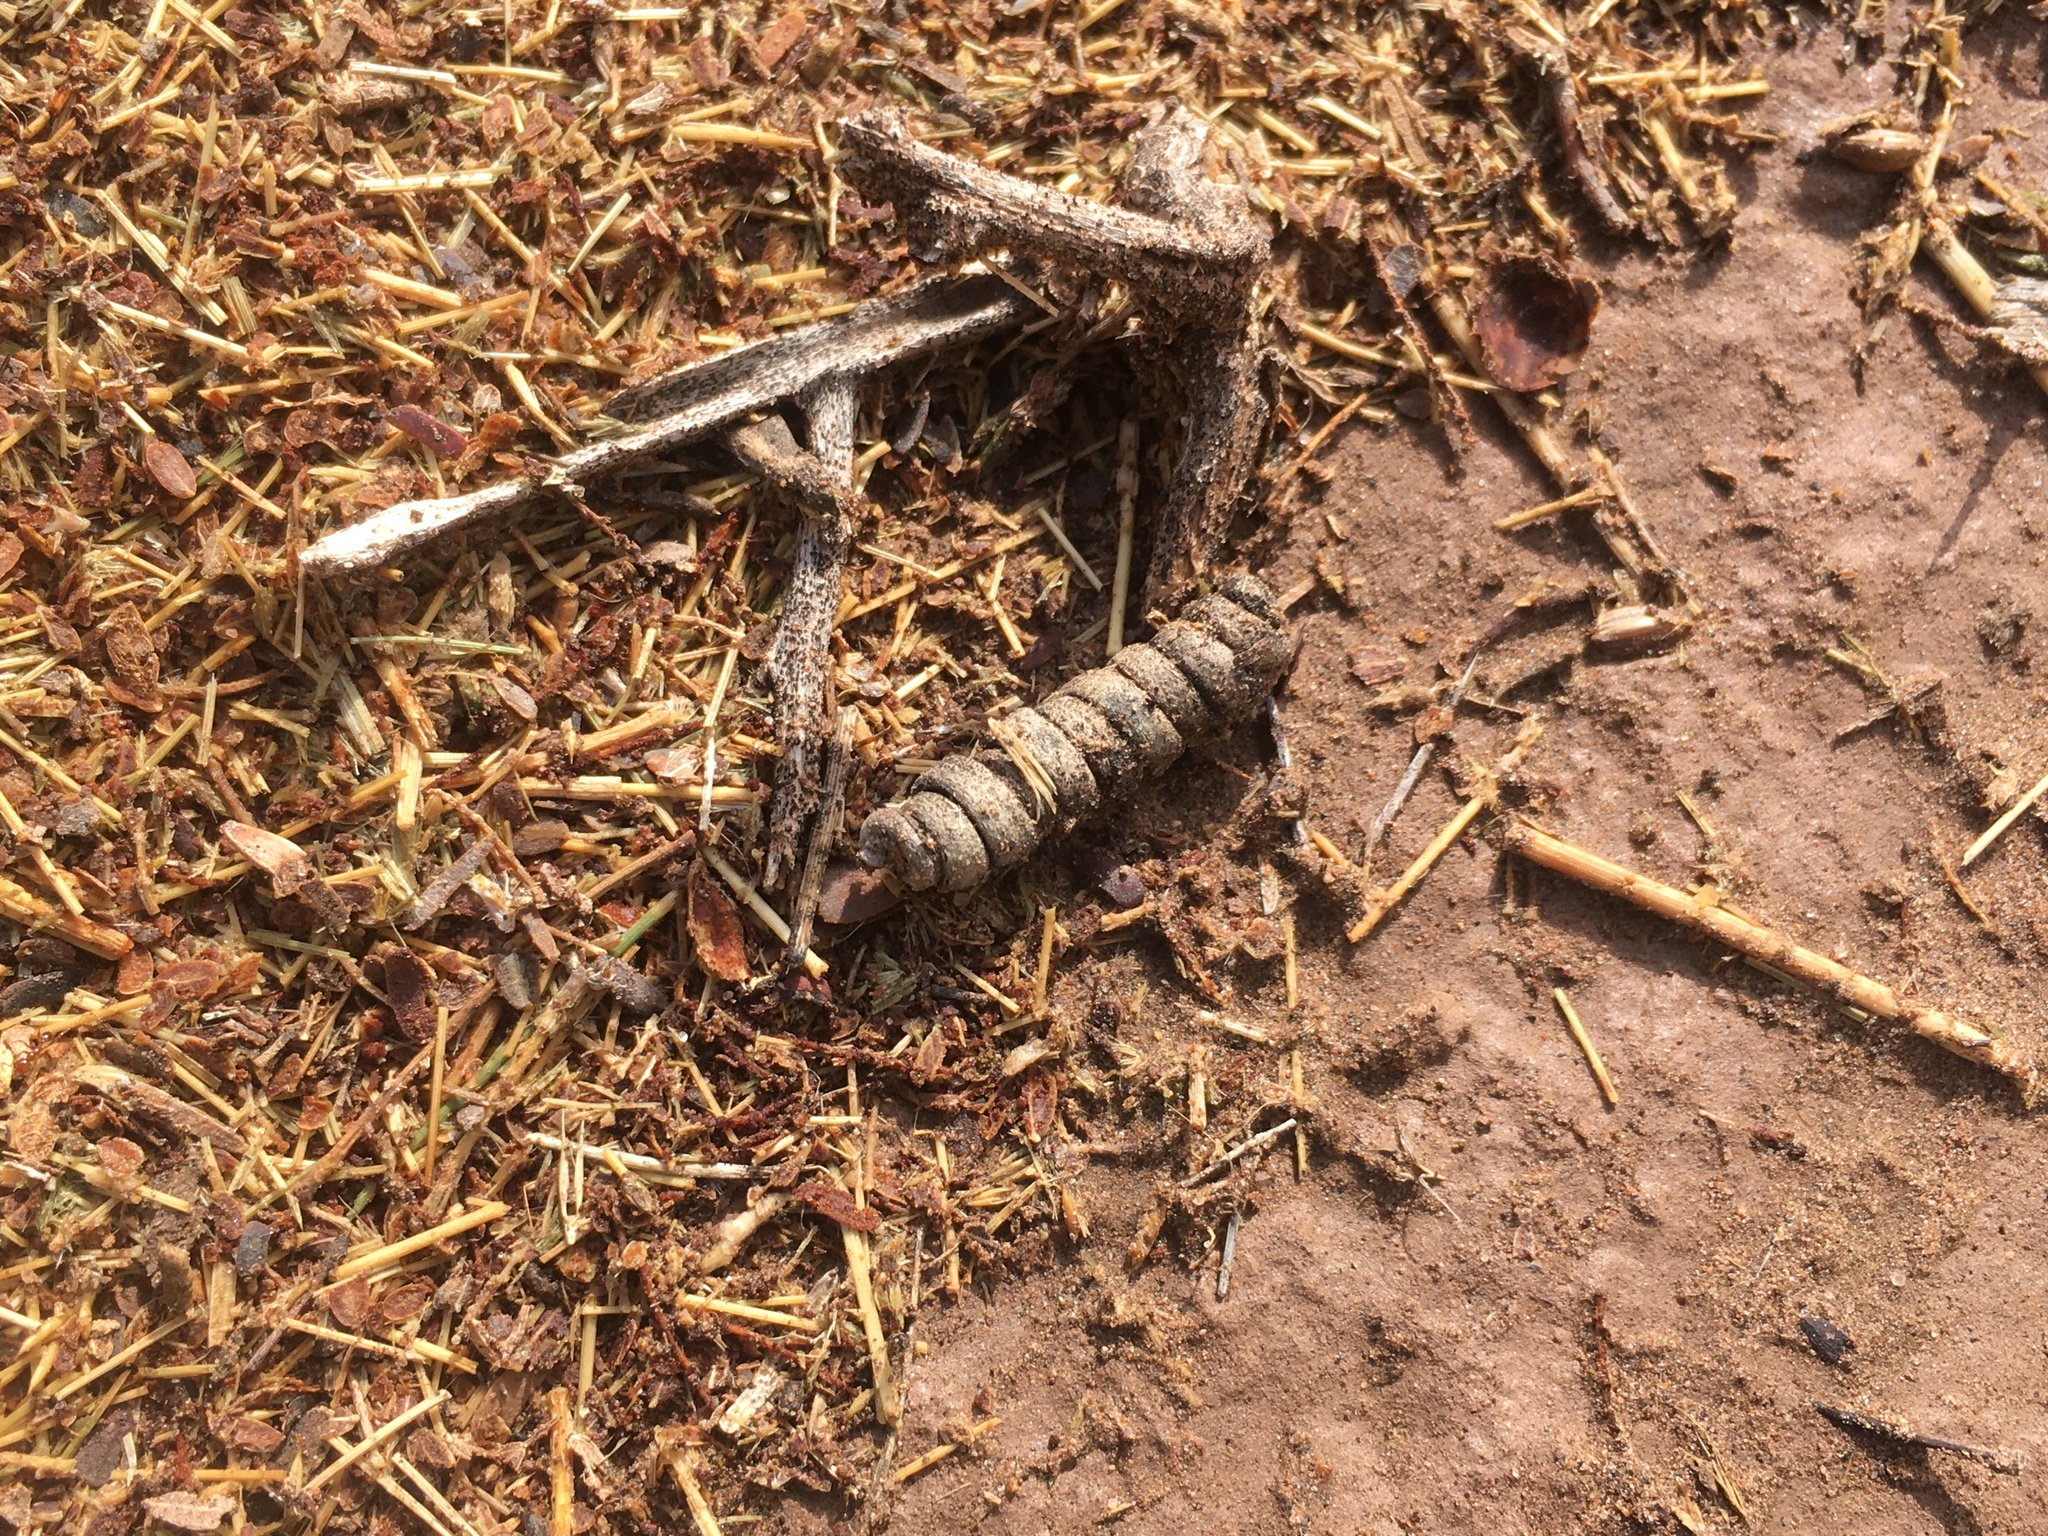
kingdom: Plantae
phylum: Tracheophyta
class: Magnoliopsida
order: Fabales
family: Fabaceae
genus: Prosopis
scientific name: Prosopis strombulifera
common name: Creeping mesquite
